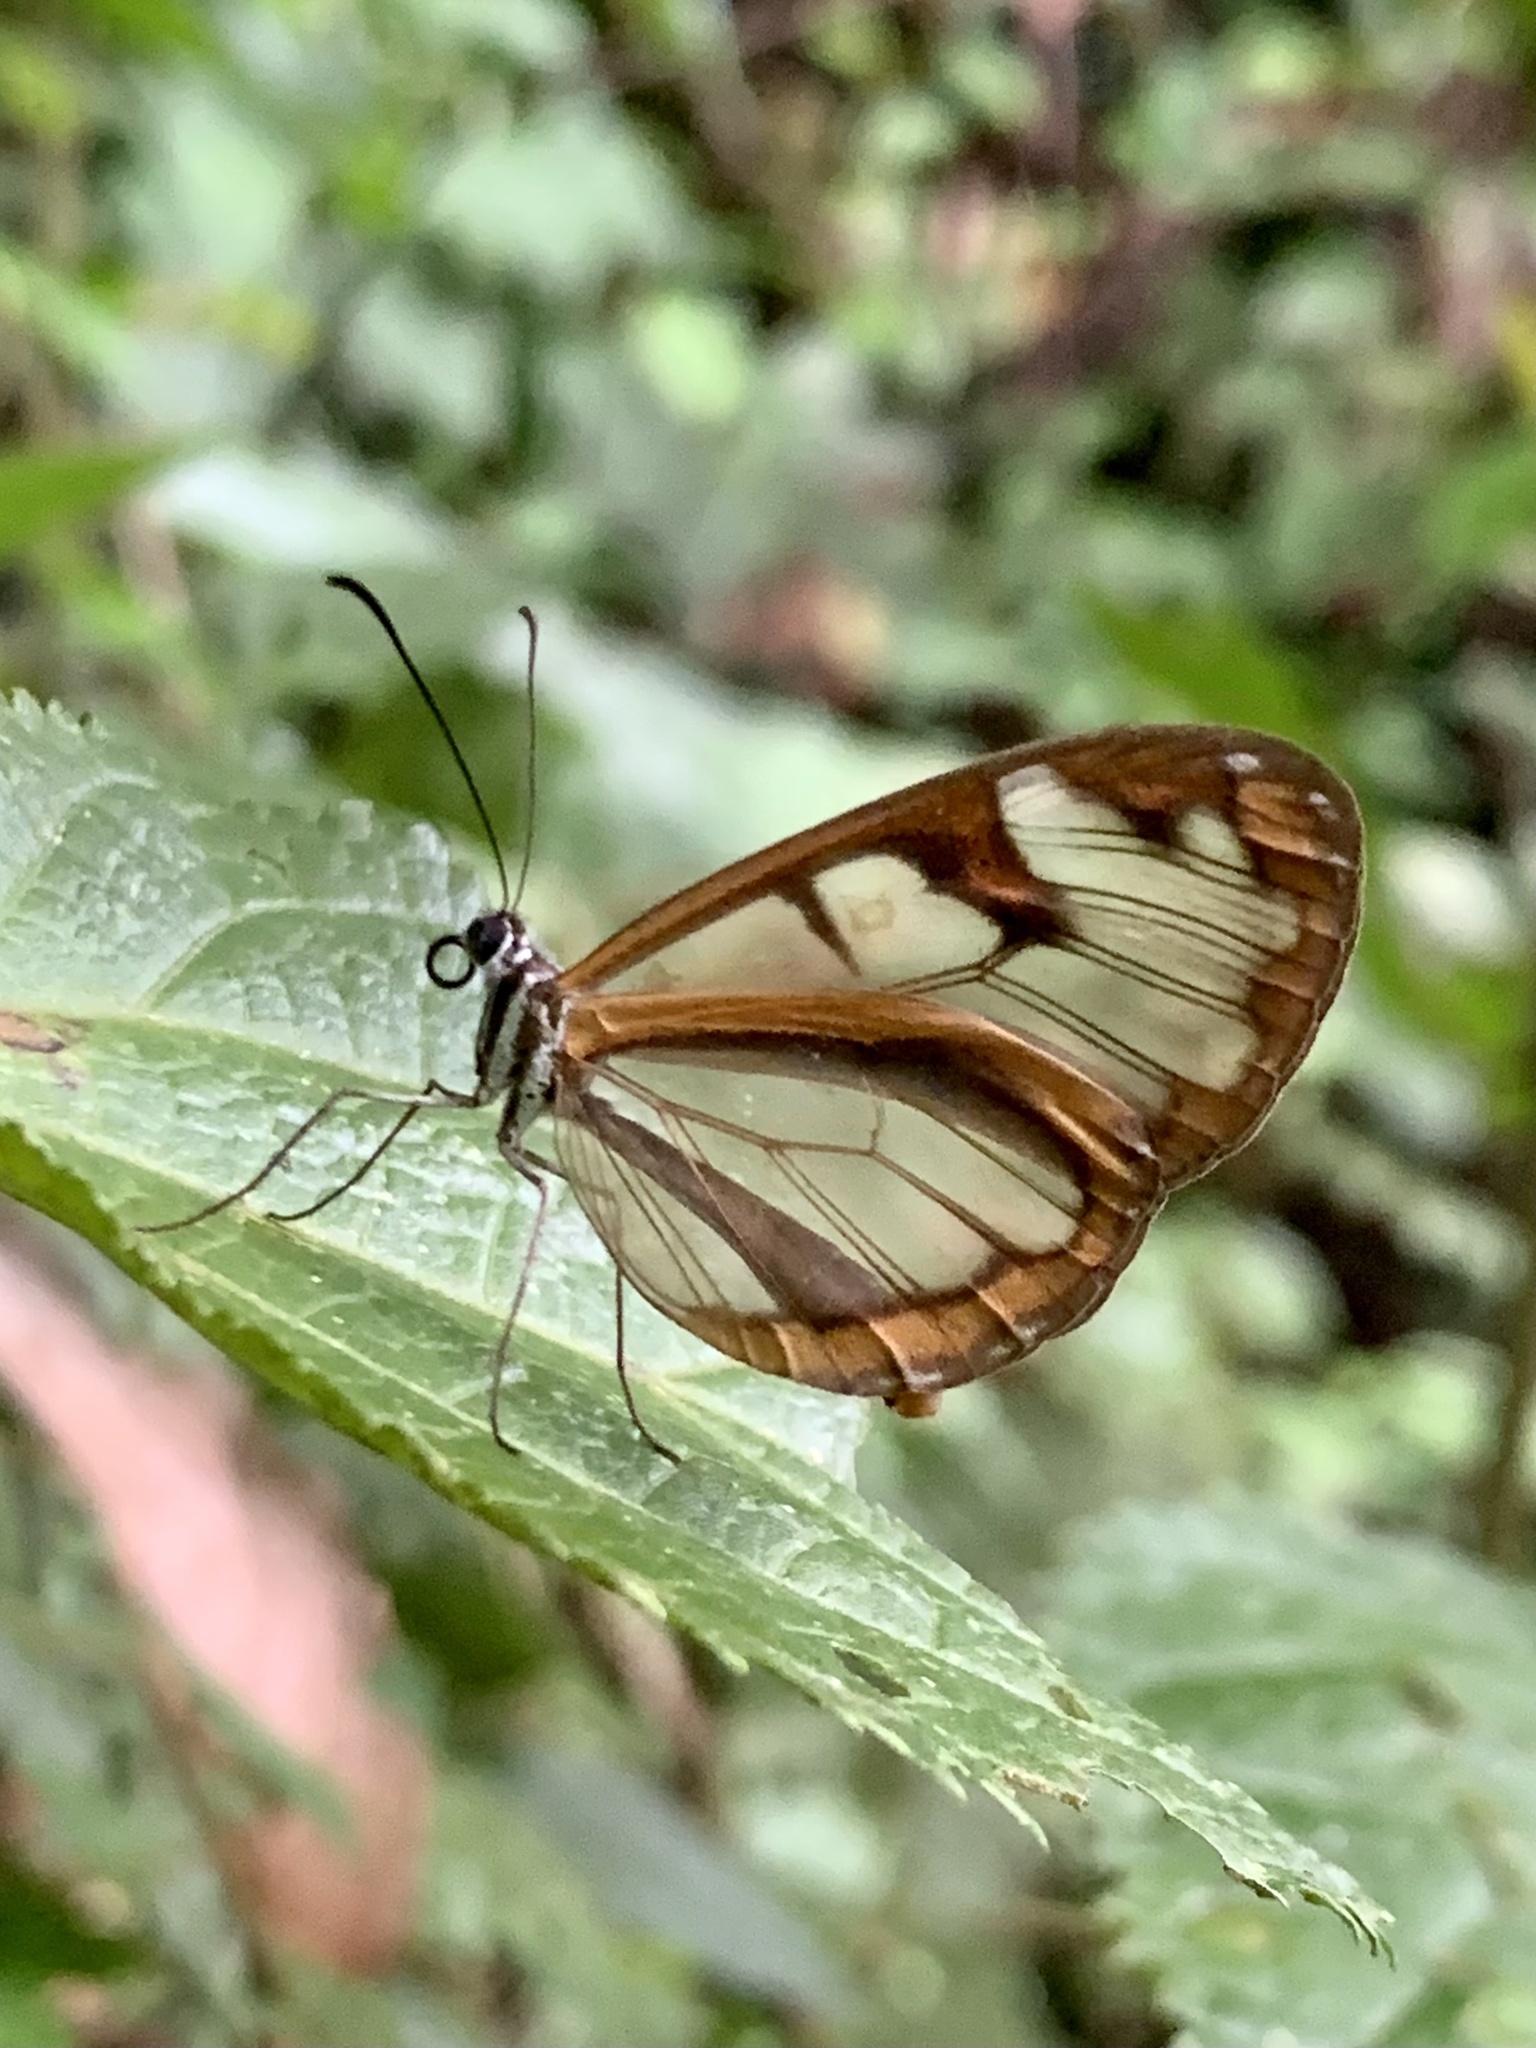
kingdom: Animalia
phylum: Arthropoda
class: Insecta
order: Lepidoptera
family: Nymphalidae
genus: Oleria
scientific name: Oleria makrena
